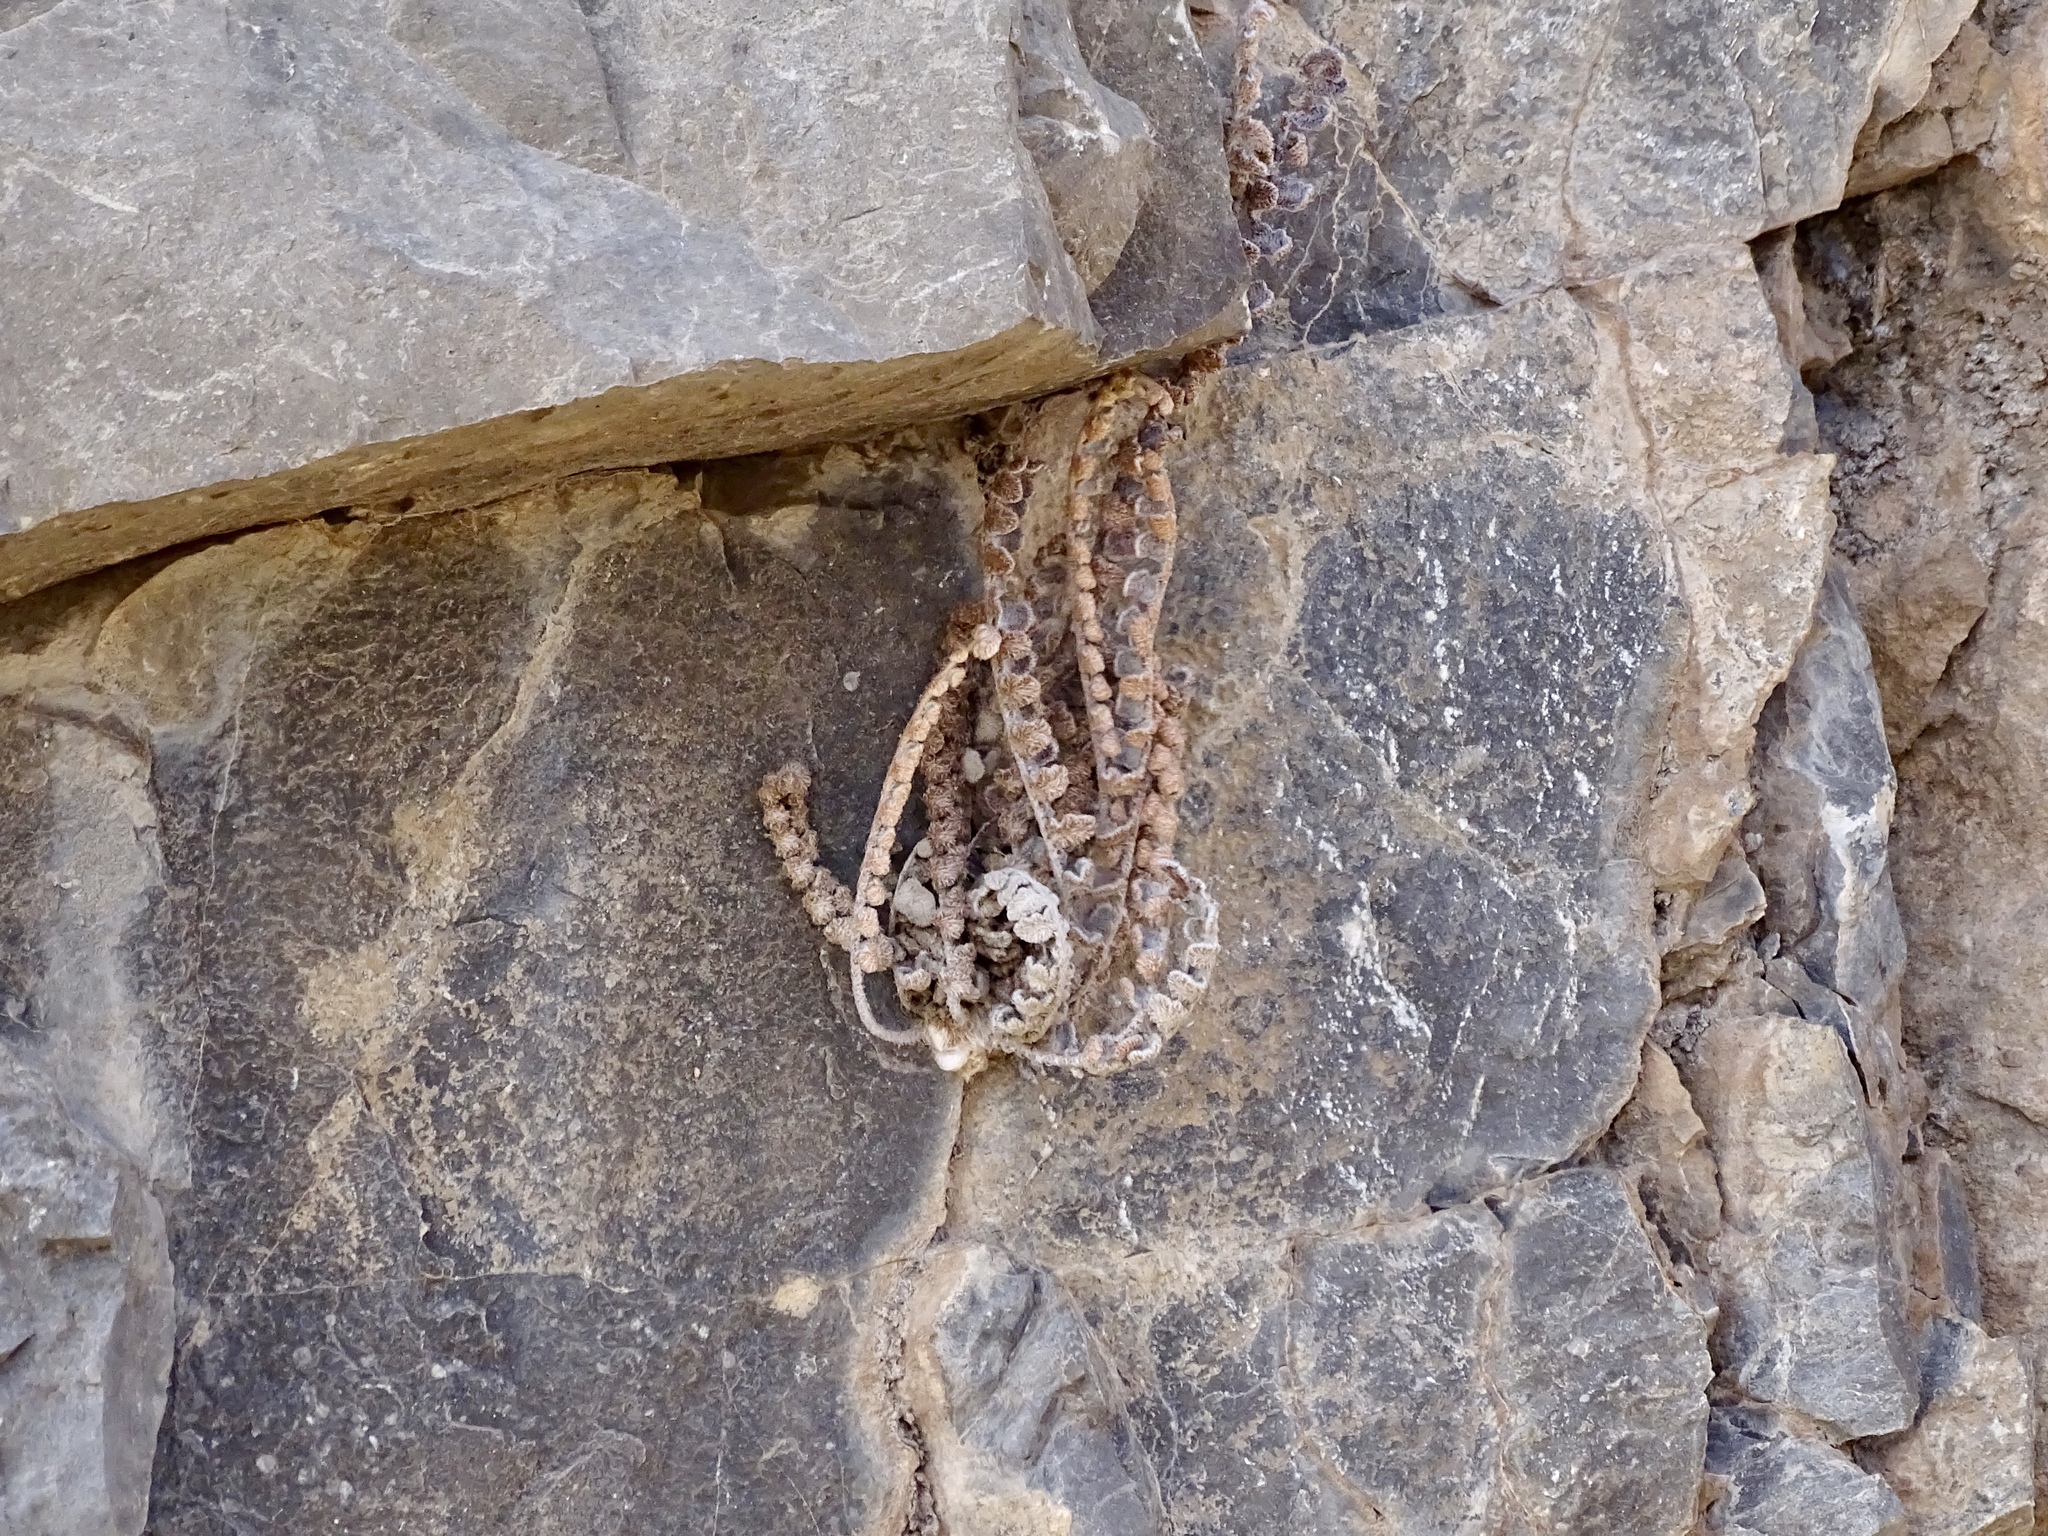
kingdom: Plantae
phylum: Tracheophyta
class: Polypodiopsida
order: Polypodiales
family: Pteridaceae
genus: Astrolepis
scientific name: Astrolepis integerrima
